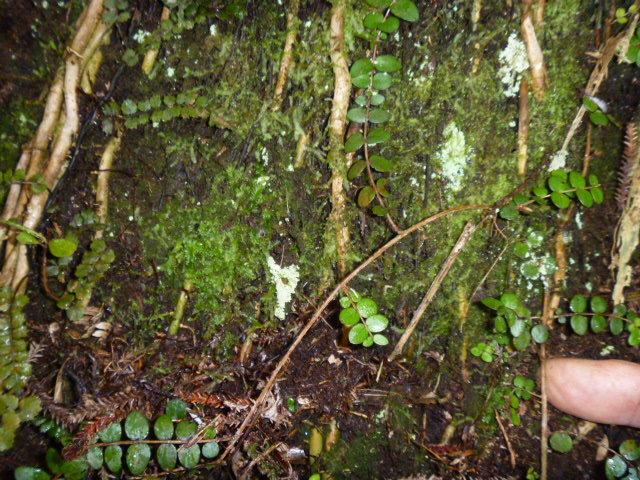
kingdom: Plantae
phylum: Tracheophyta
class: Magnoliopsida
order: Myrtales
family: Myrtaceae
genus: Metrosideros
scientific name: Metrosideros perforata
